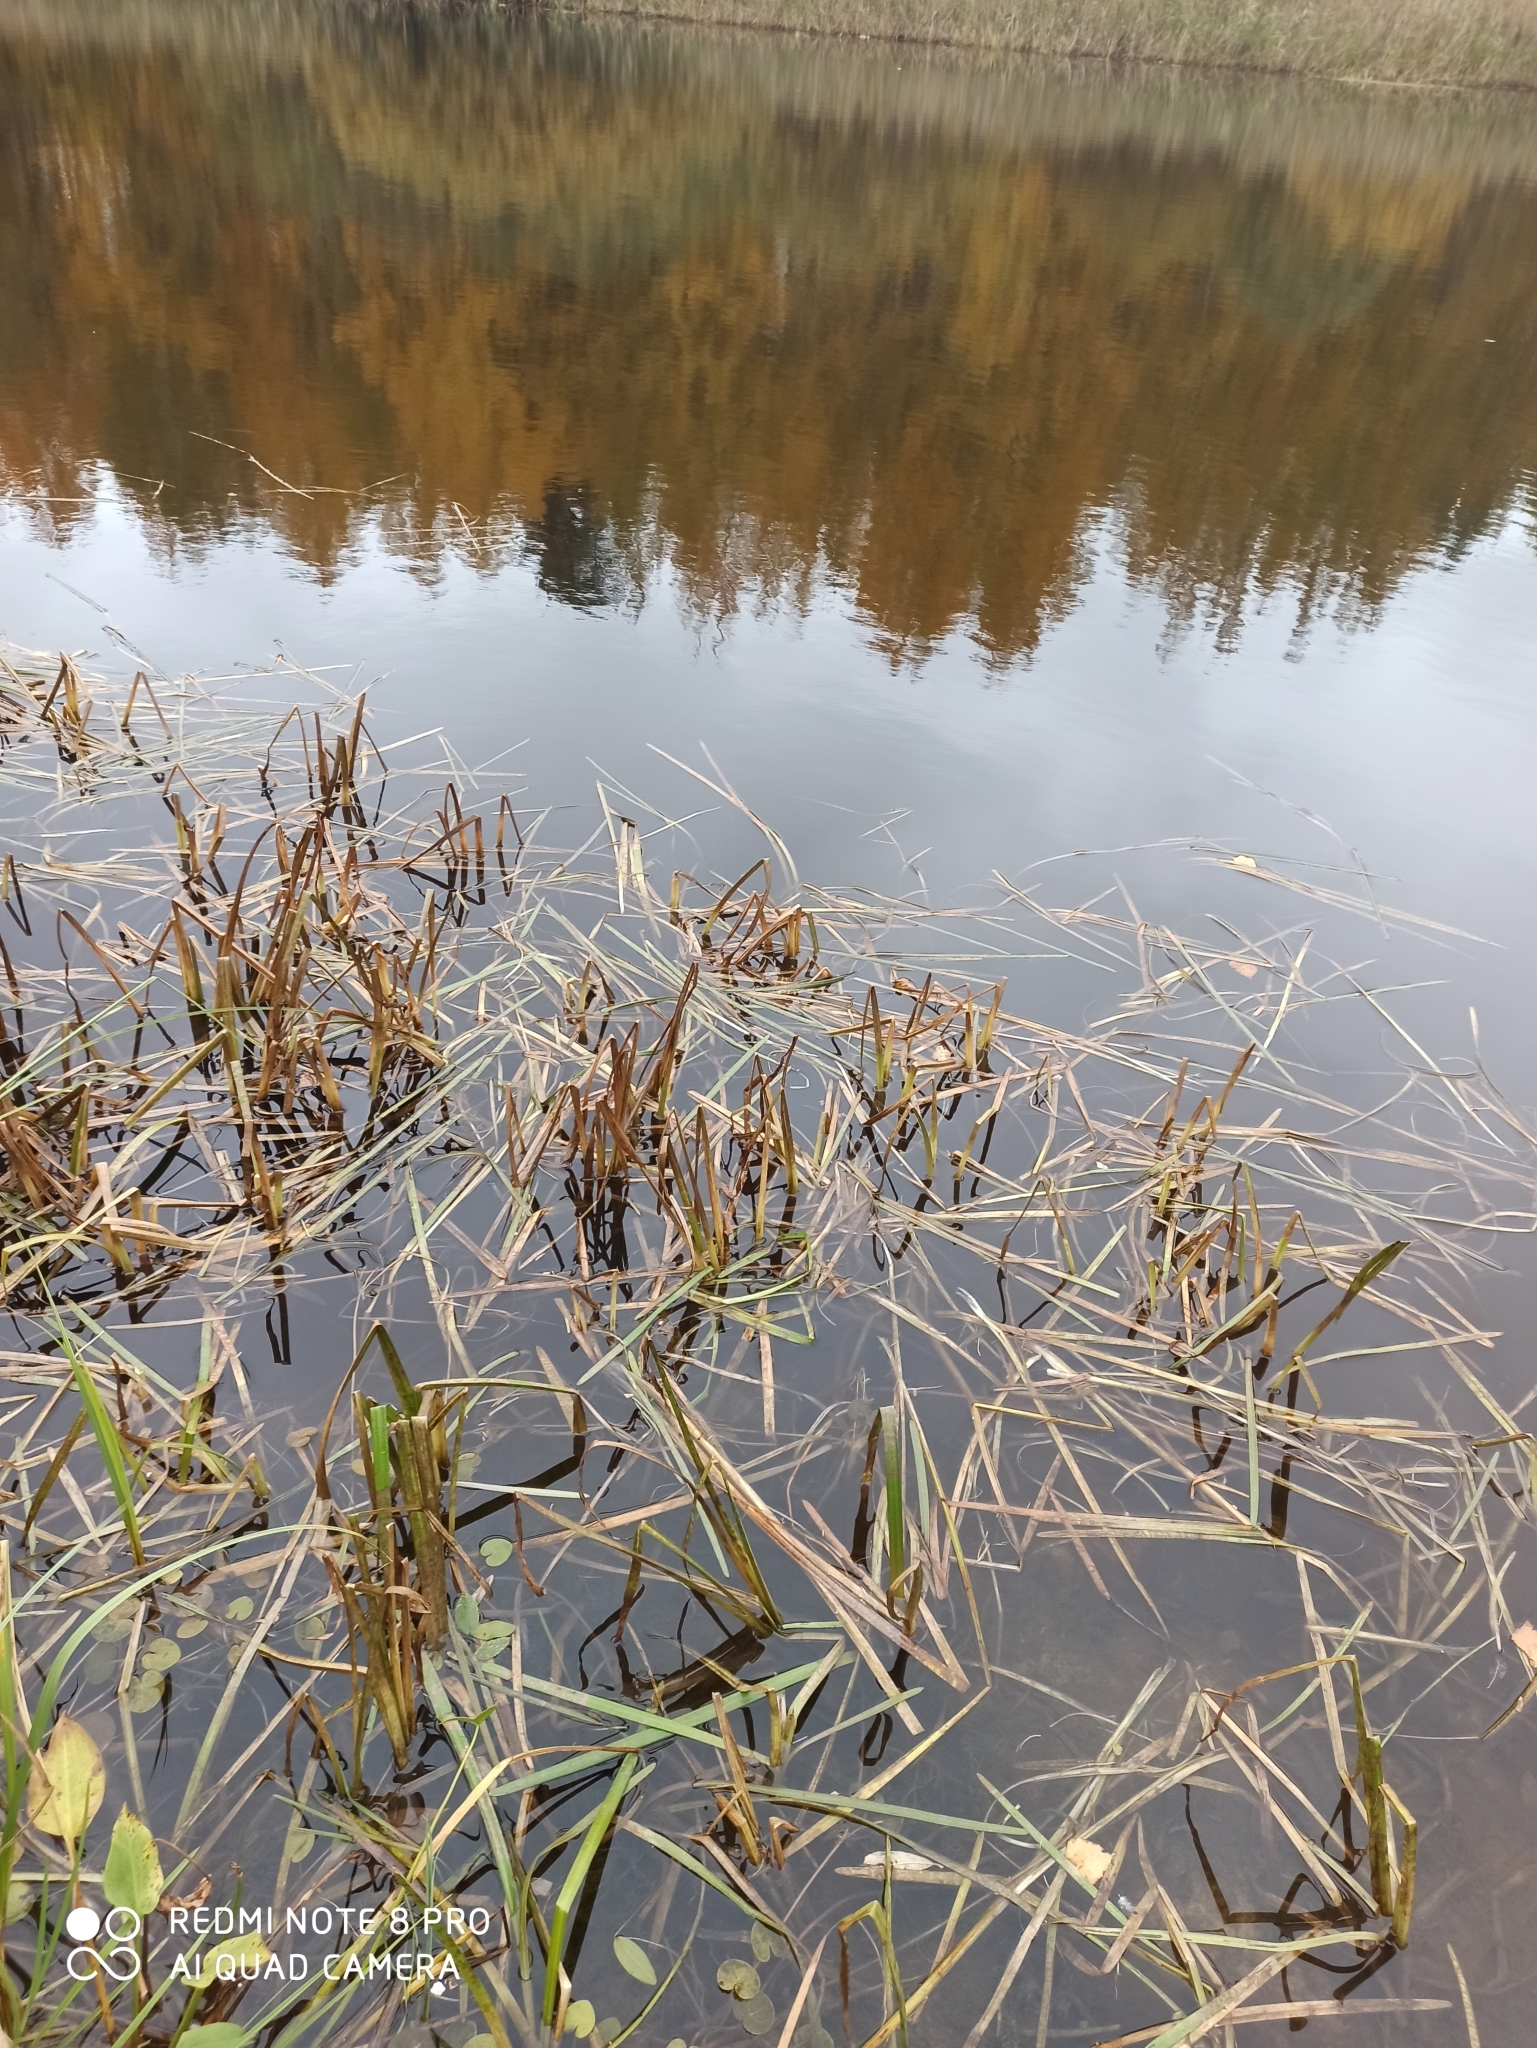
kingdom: Plantae
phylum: Tracheophyta
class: Liliopsida
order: Poales
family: Typhaceae
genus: Sparganium
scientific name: Sparganium emersum
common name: Unbranched bur-reed
